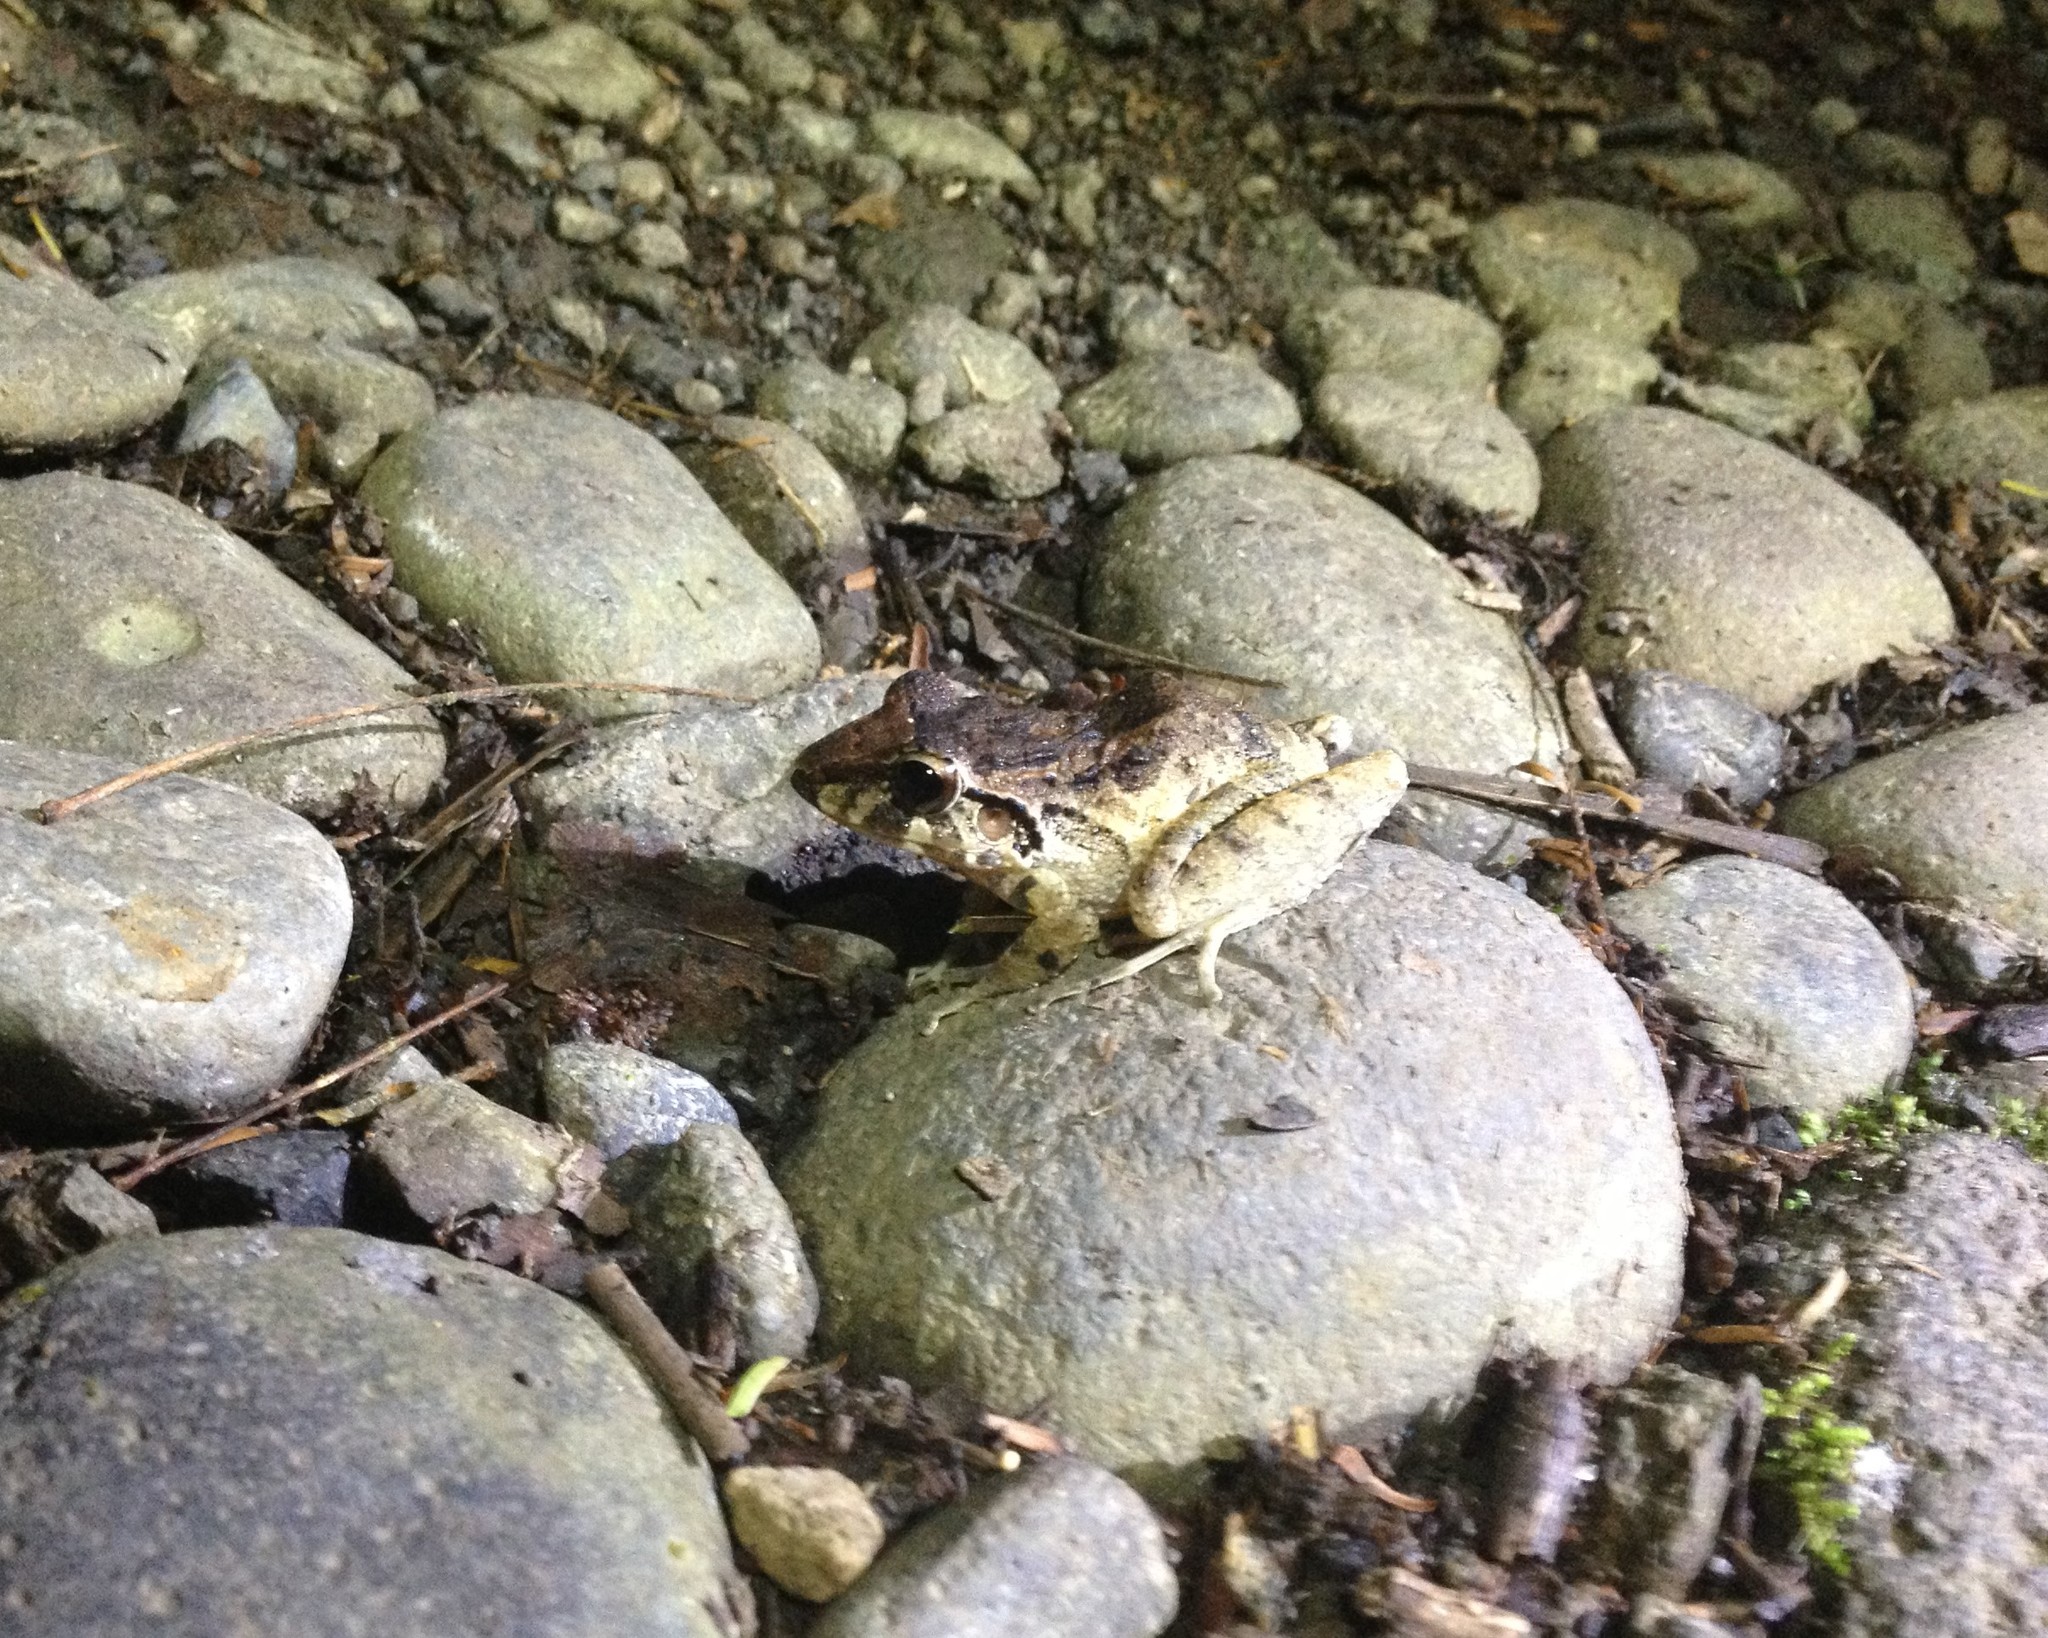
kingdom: Animalia
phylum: Chordata
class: Amphibia
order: Anura
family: Craugastoridae
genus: Craugastor
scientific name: Craugastor fitzingeri
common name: Fitzinger's robber frog
